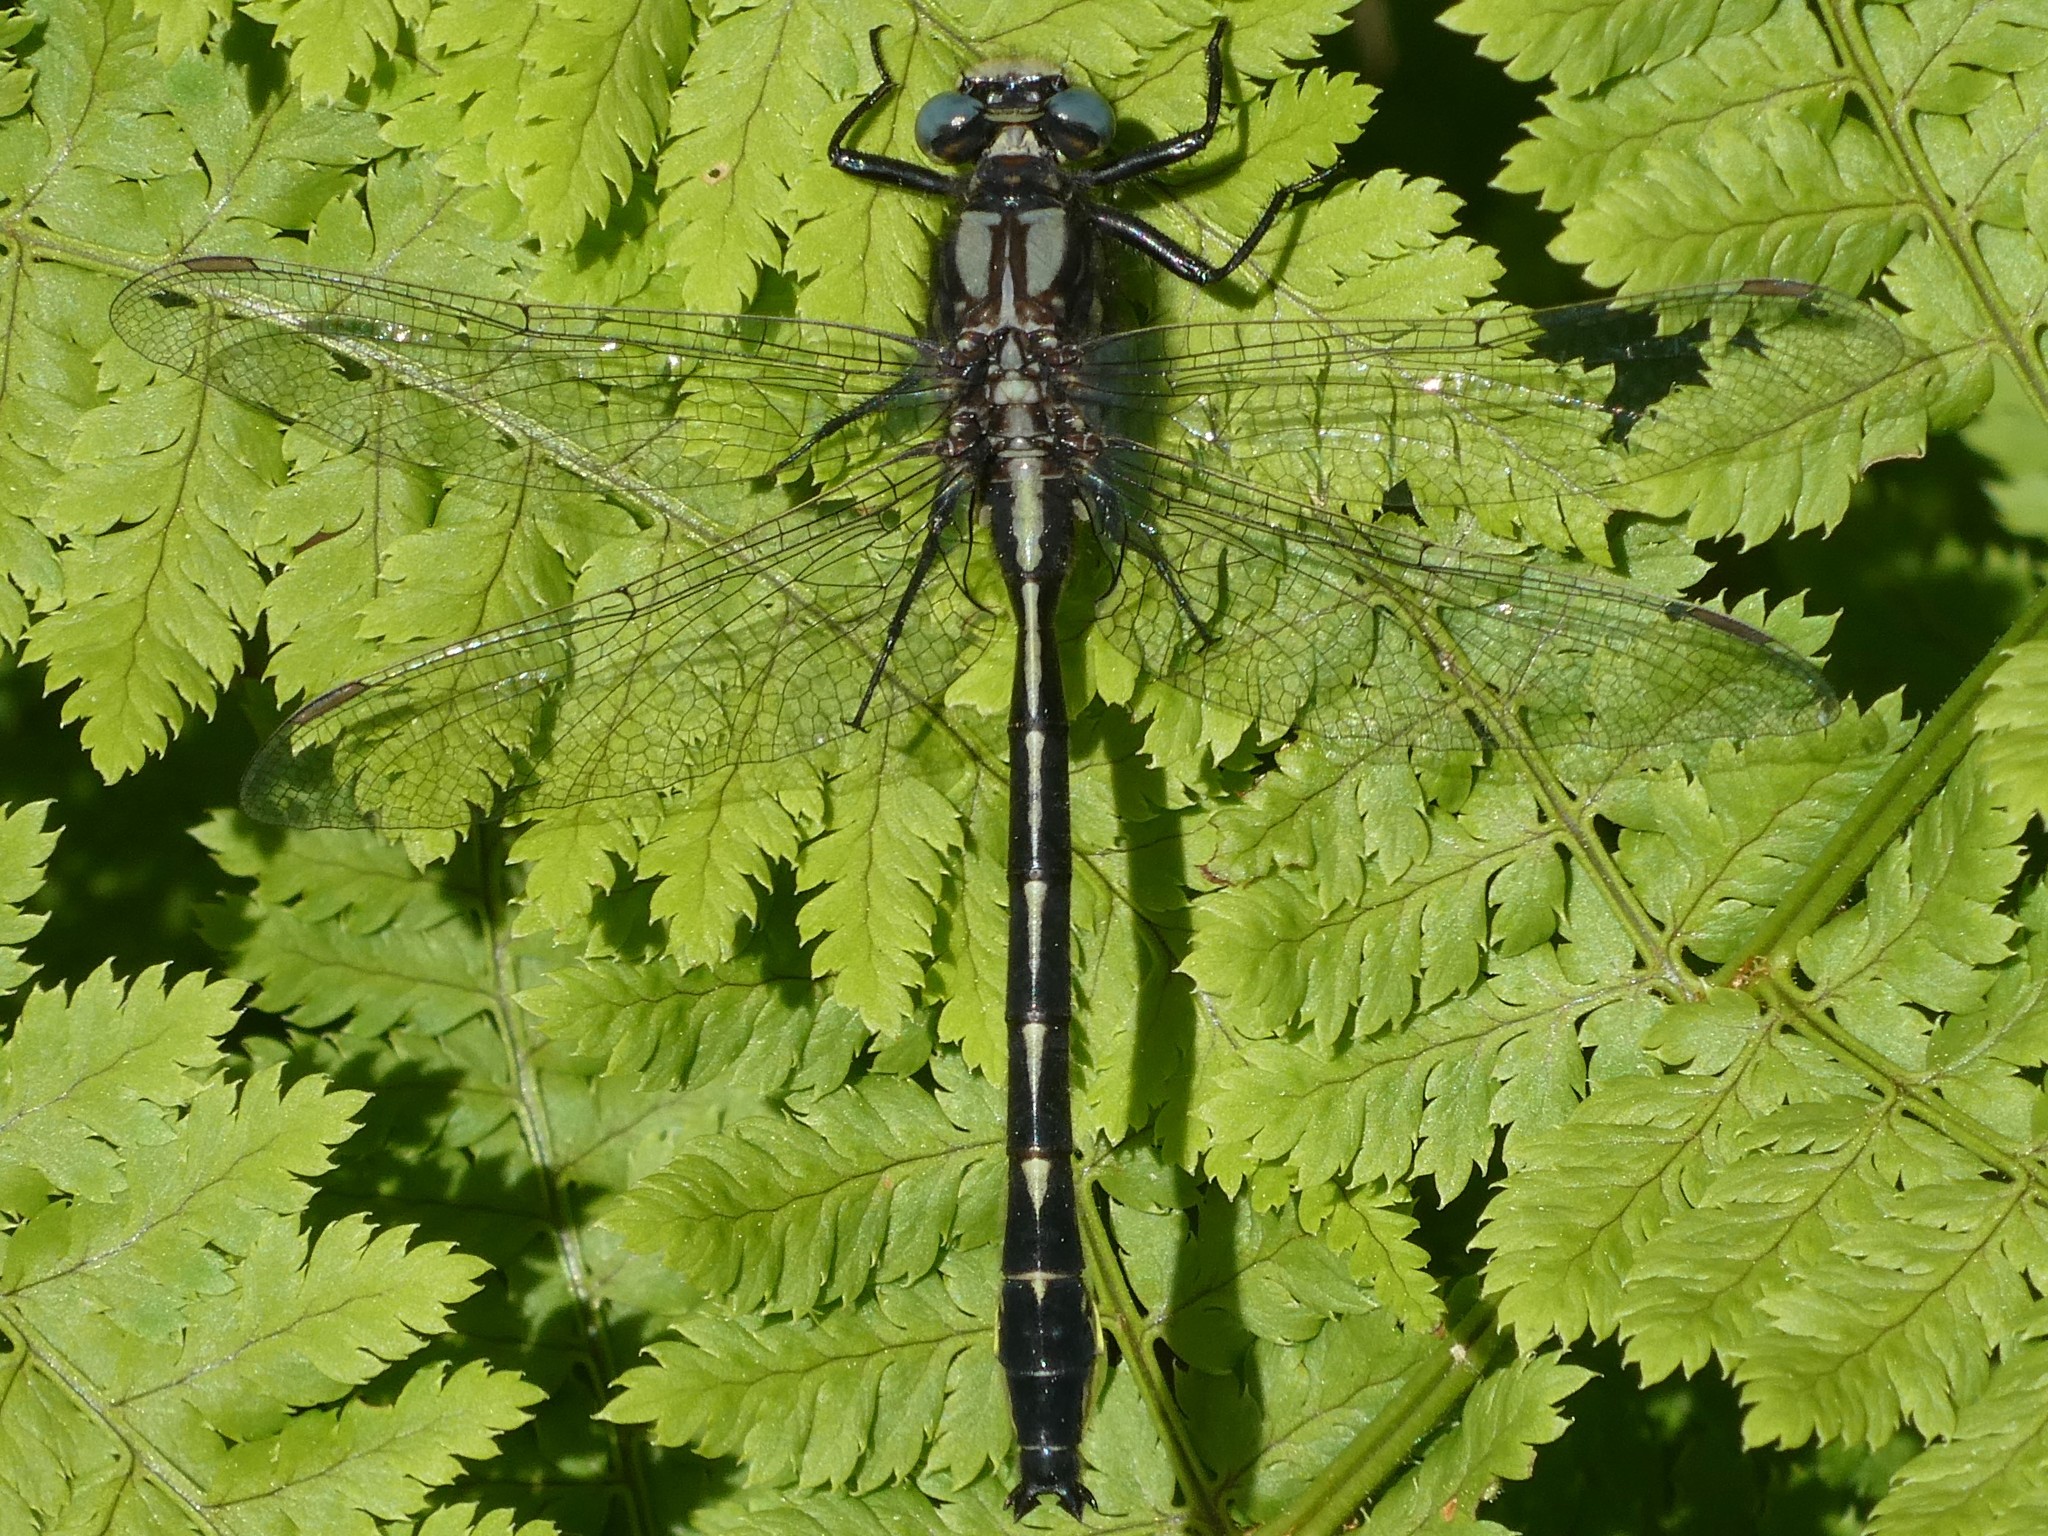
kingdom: Animalia
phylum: Arthropoda
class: Insecta
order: Odonata
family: Gomphidae
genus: Phanogomphus
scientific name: Phanogomphus borealis
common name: Beaverpond clubtail
